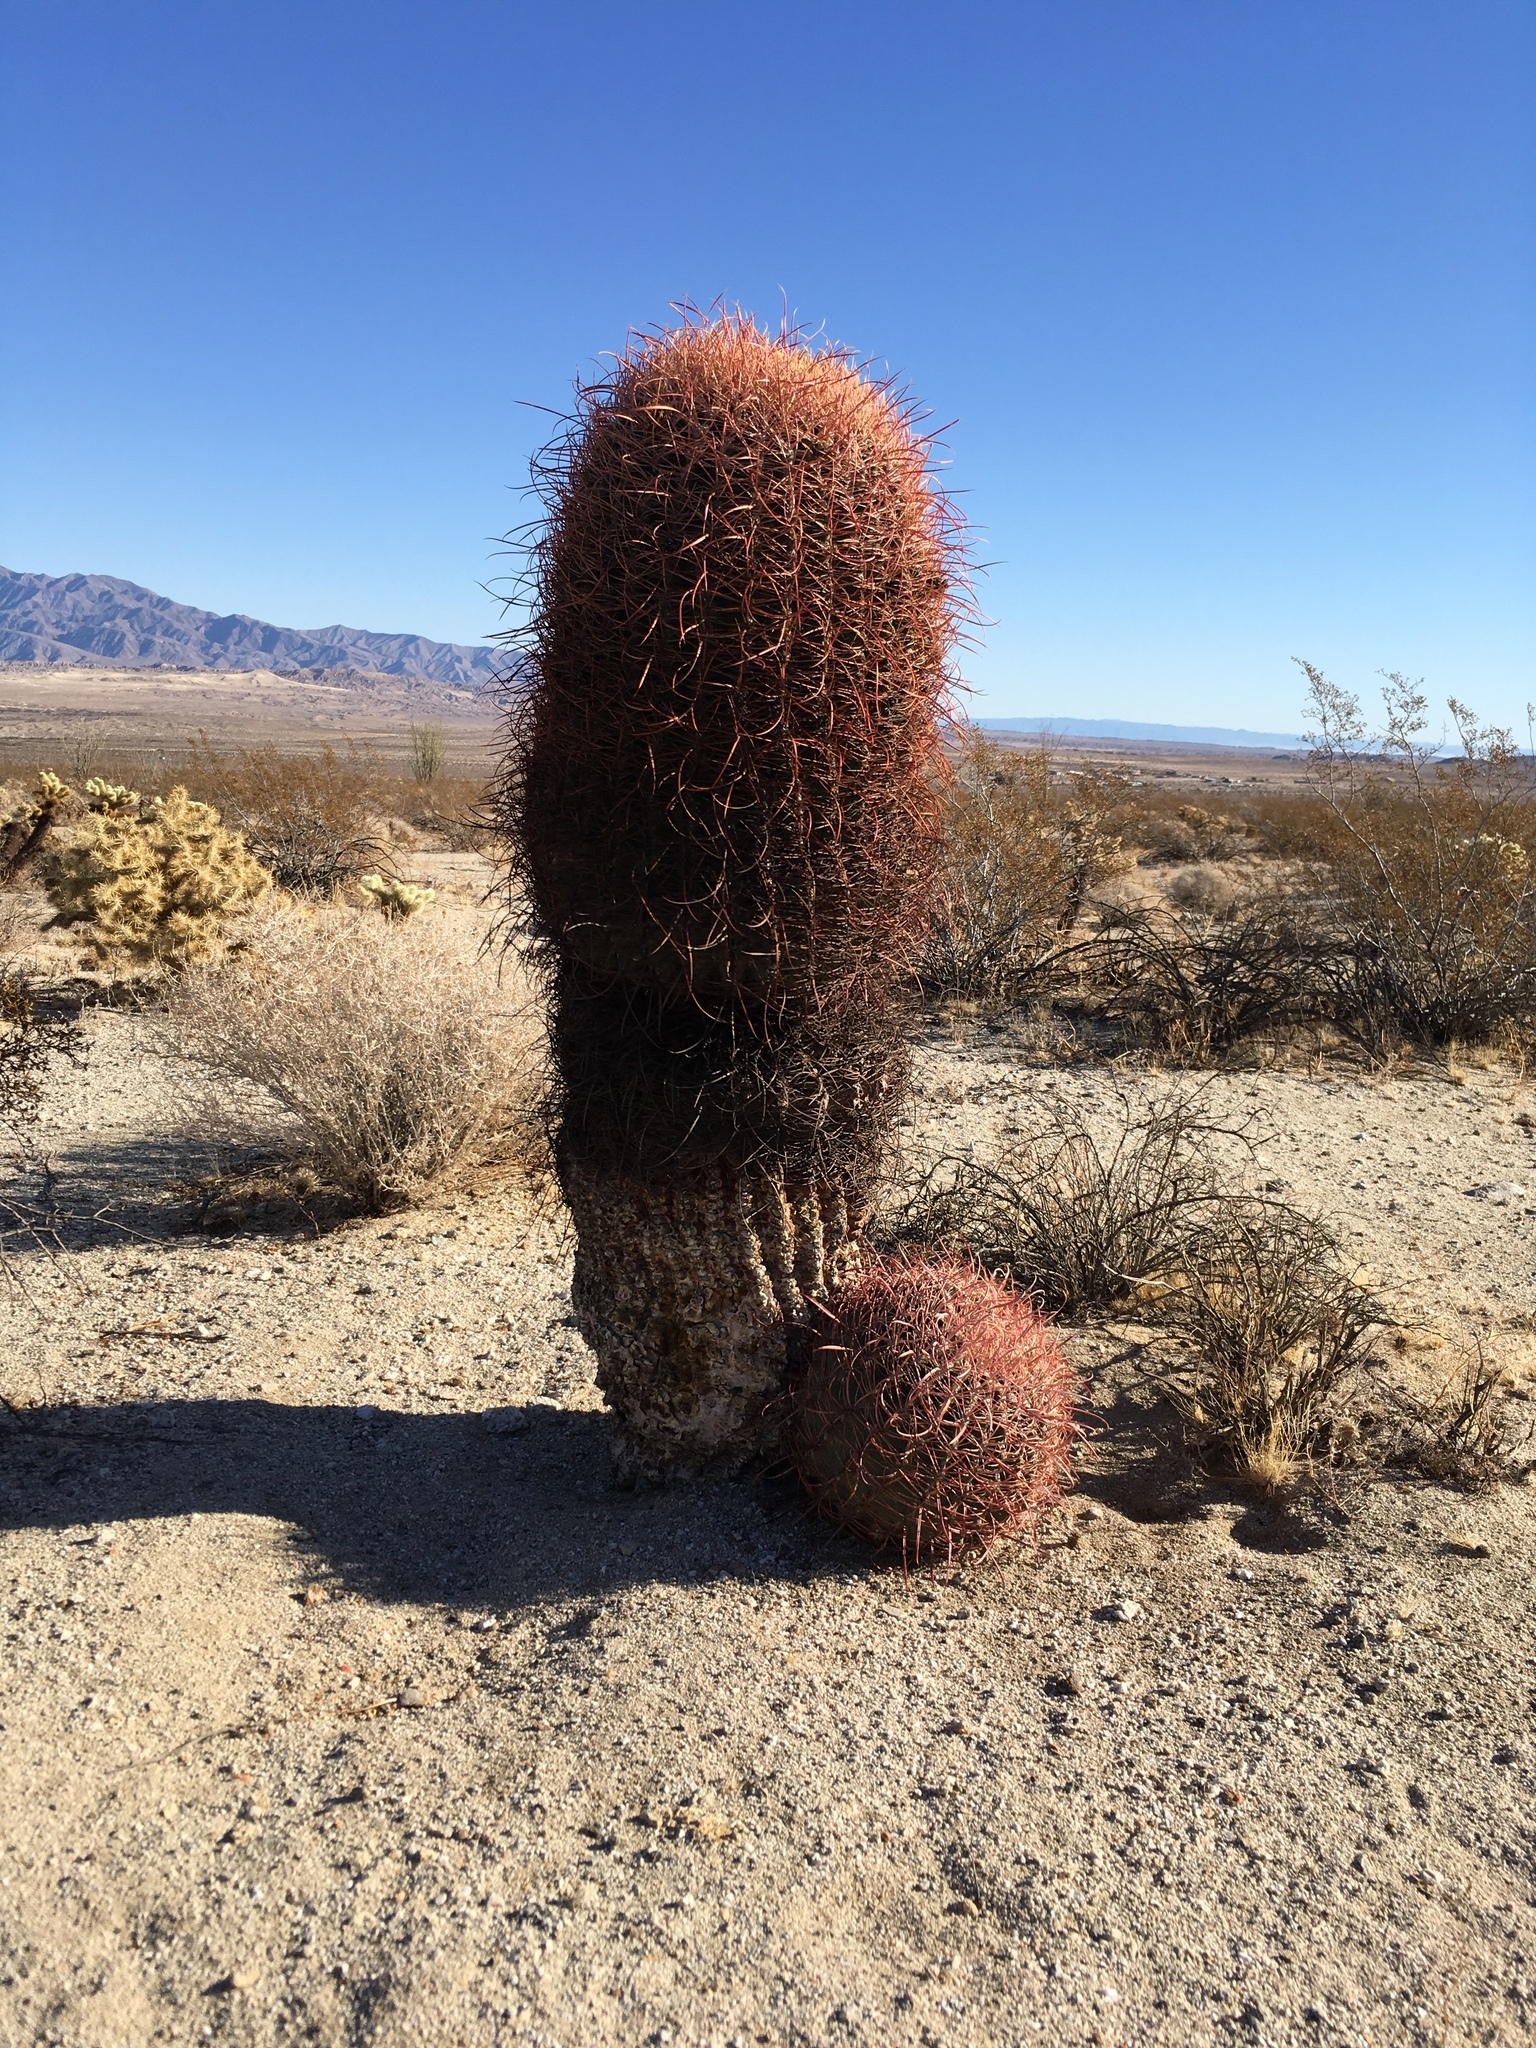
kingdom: Plantae
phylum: Tracheophyta
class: Magnoliopsida
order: Caryophyllales
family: Cactaceae
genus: Ferocactus
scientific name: Ferocactus cylindraceus
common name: California barrel cactus
